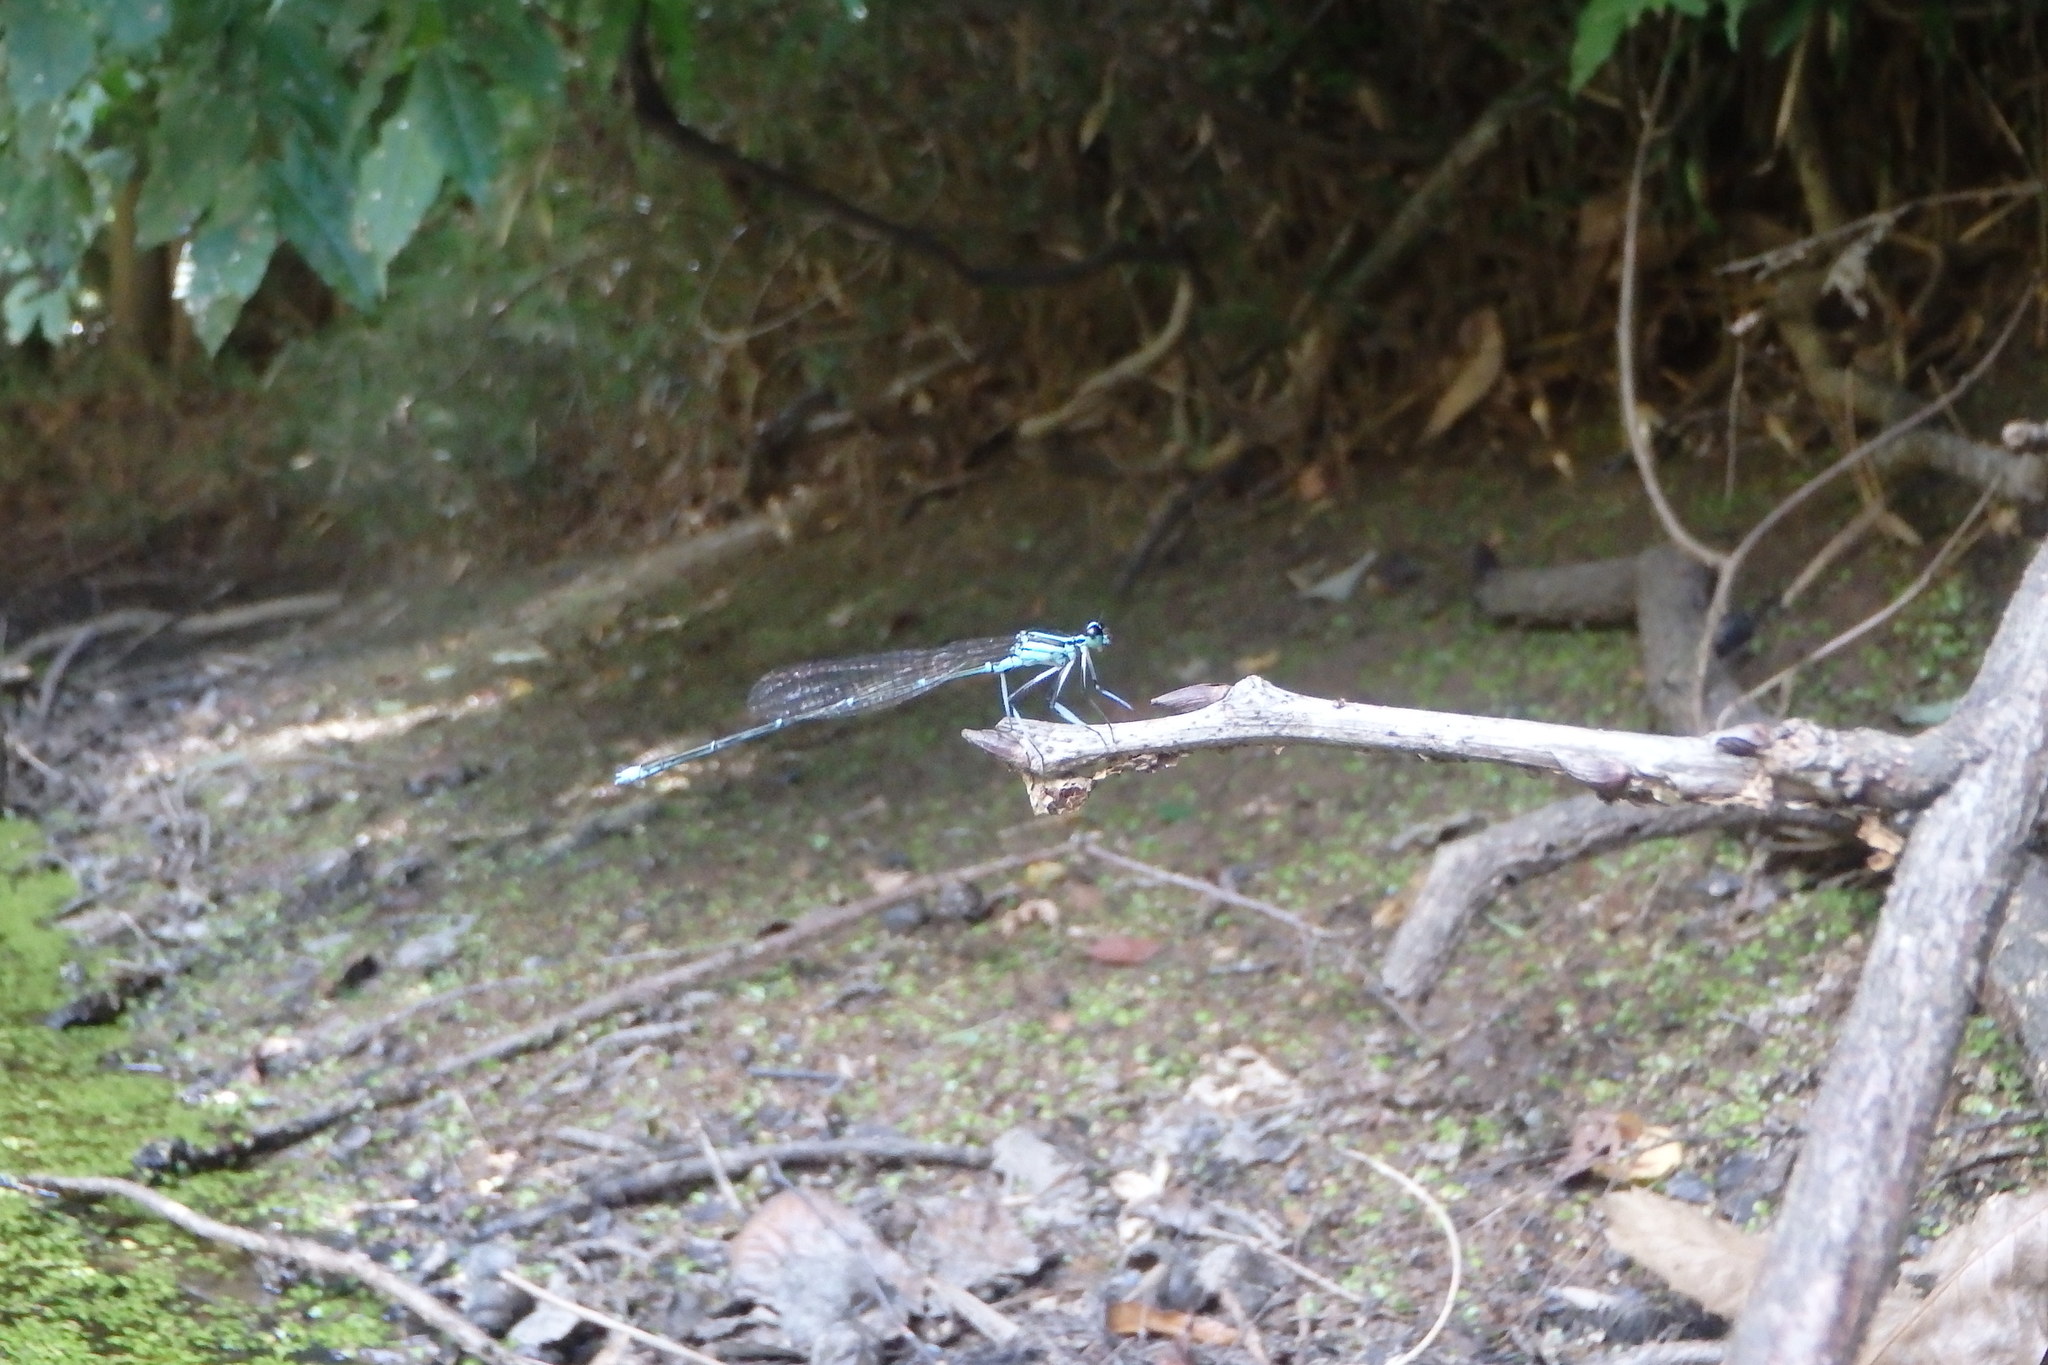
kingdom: Animalia
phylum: Arthropoda
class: Insecta
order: Odonata
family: Platycnemididae
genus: Pseudocopera
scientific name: Pseudocopera annulata
